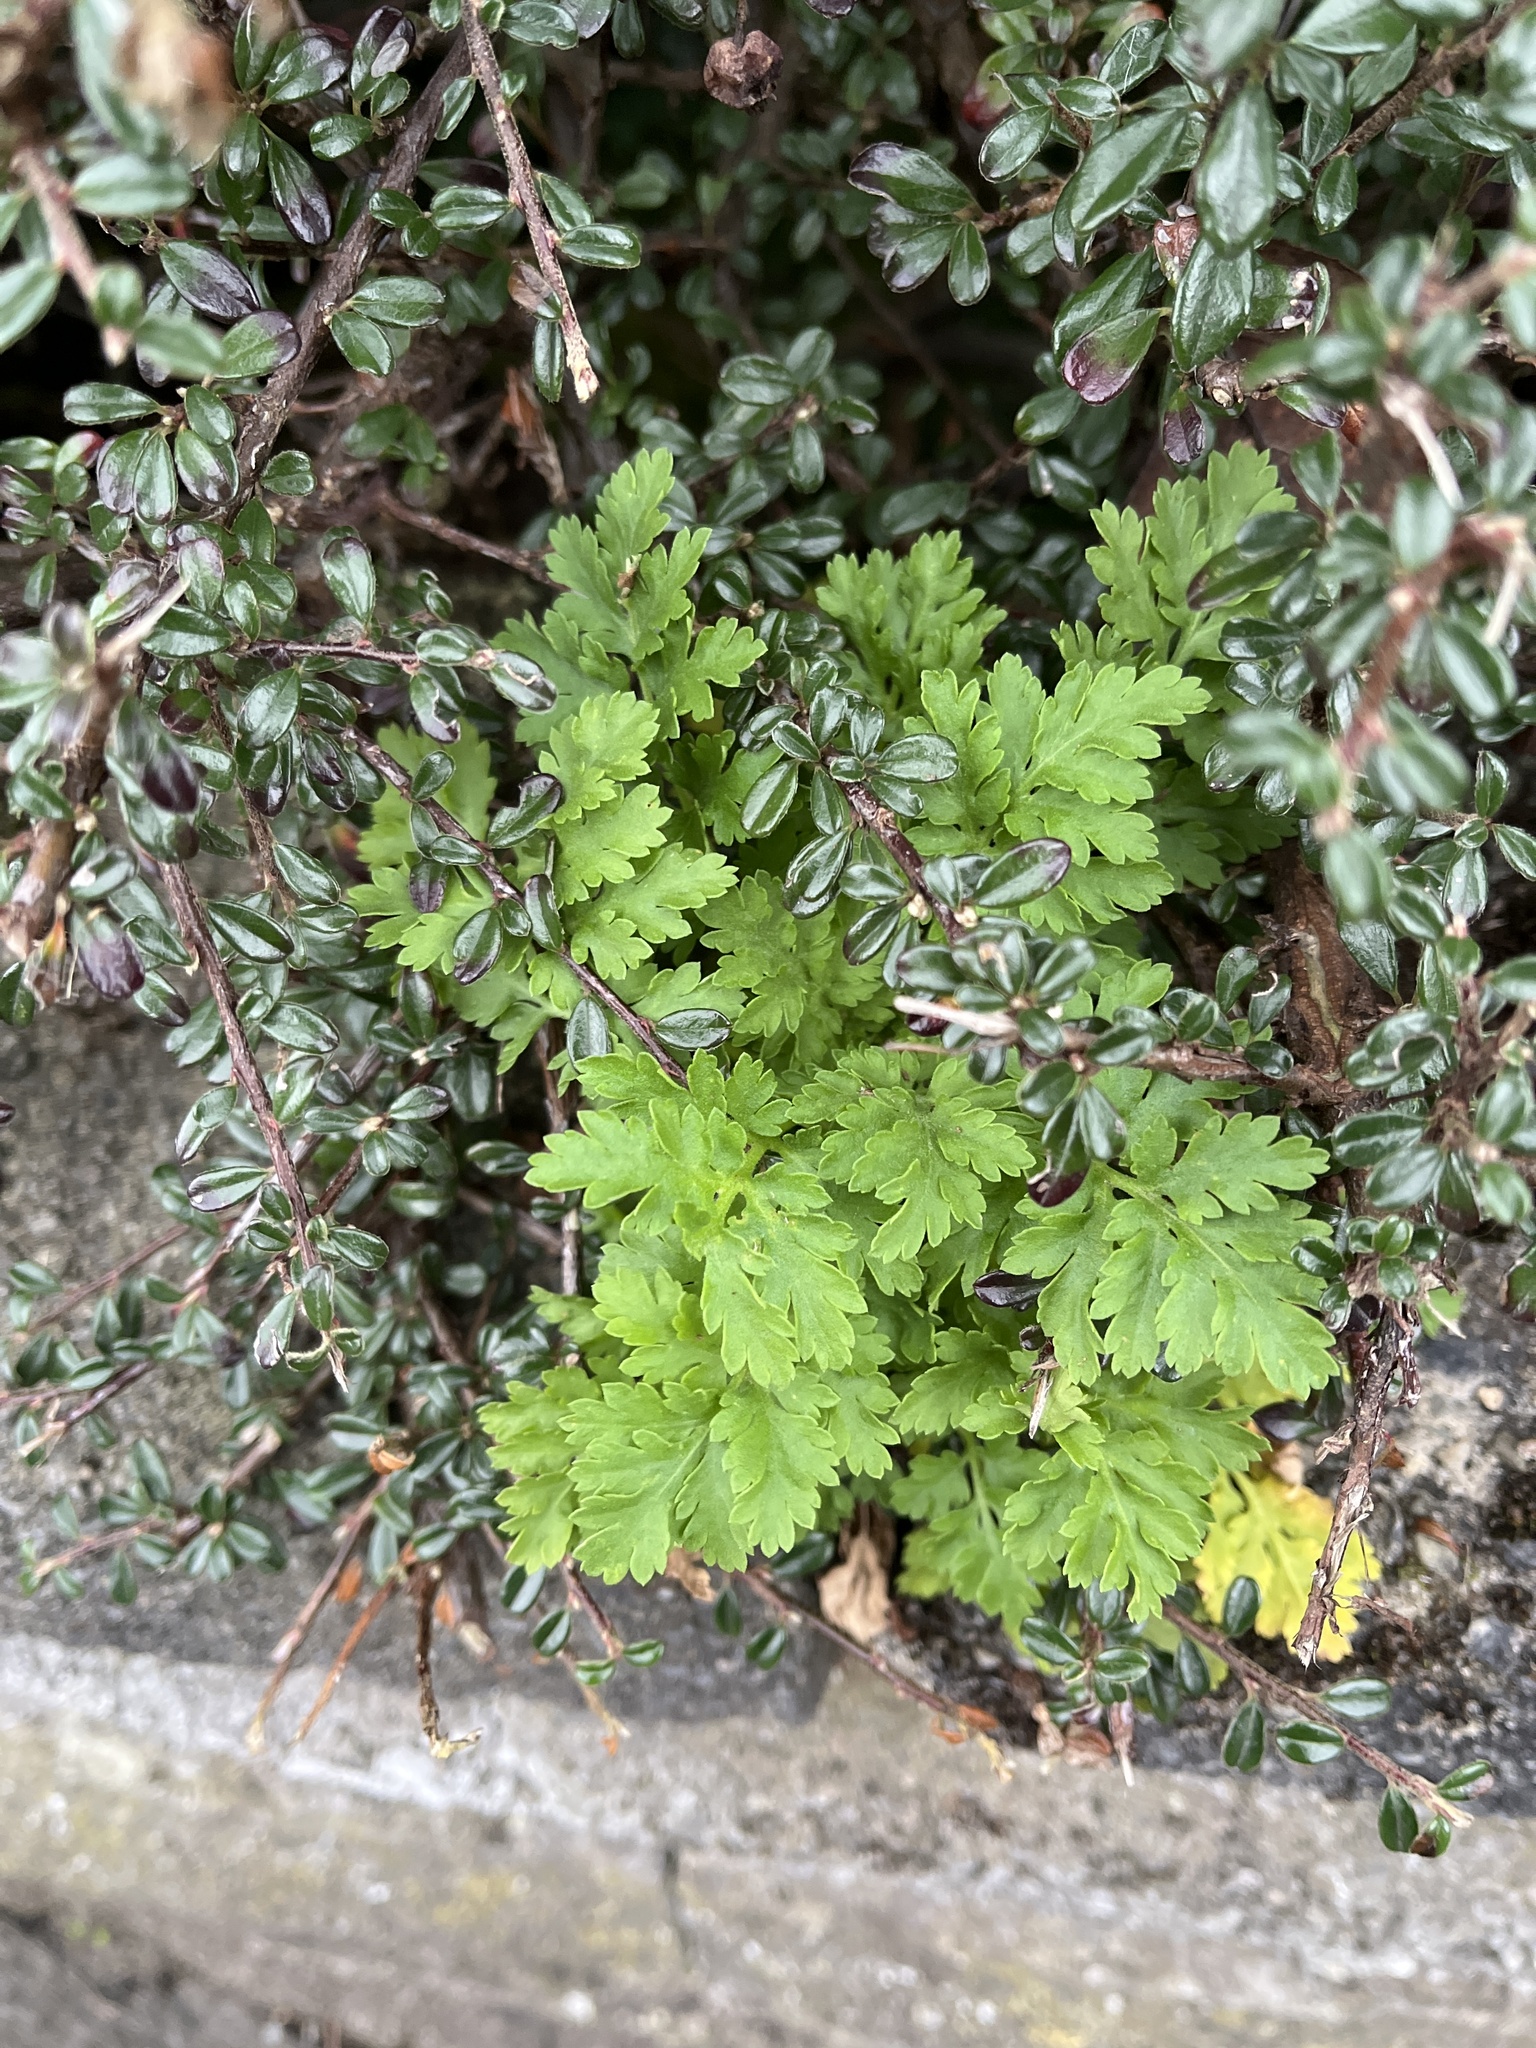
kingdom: Plantae
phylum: Tracheophyta
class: Magnoliopsida
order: Asterales
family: Asteraceae
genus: Tanacetum
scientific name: Tanacetum parthenium
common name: Feverfew
